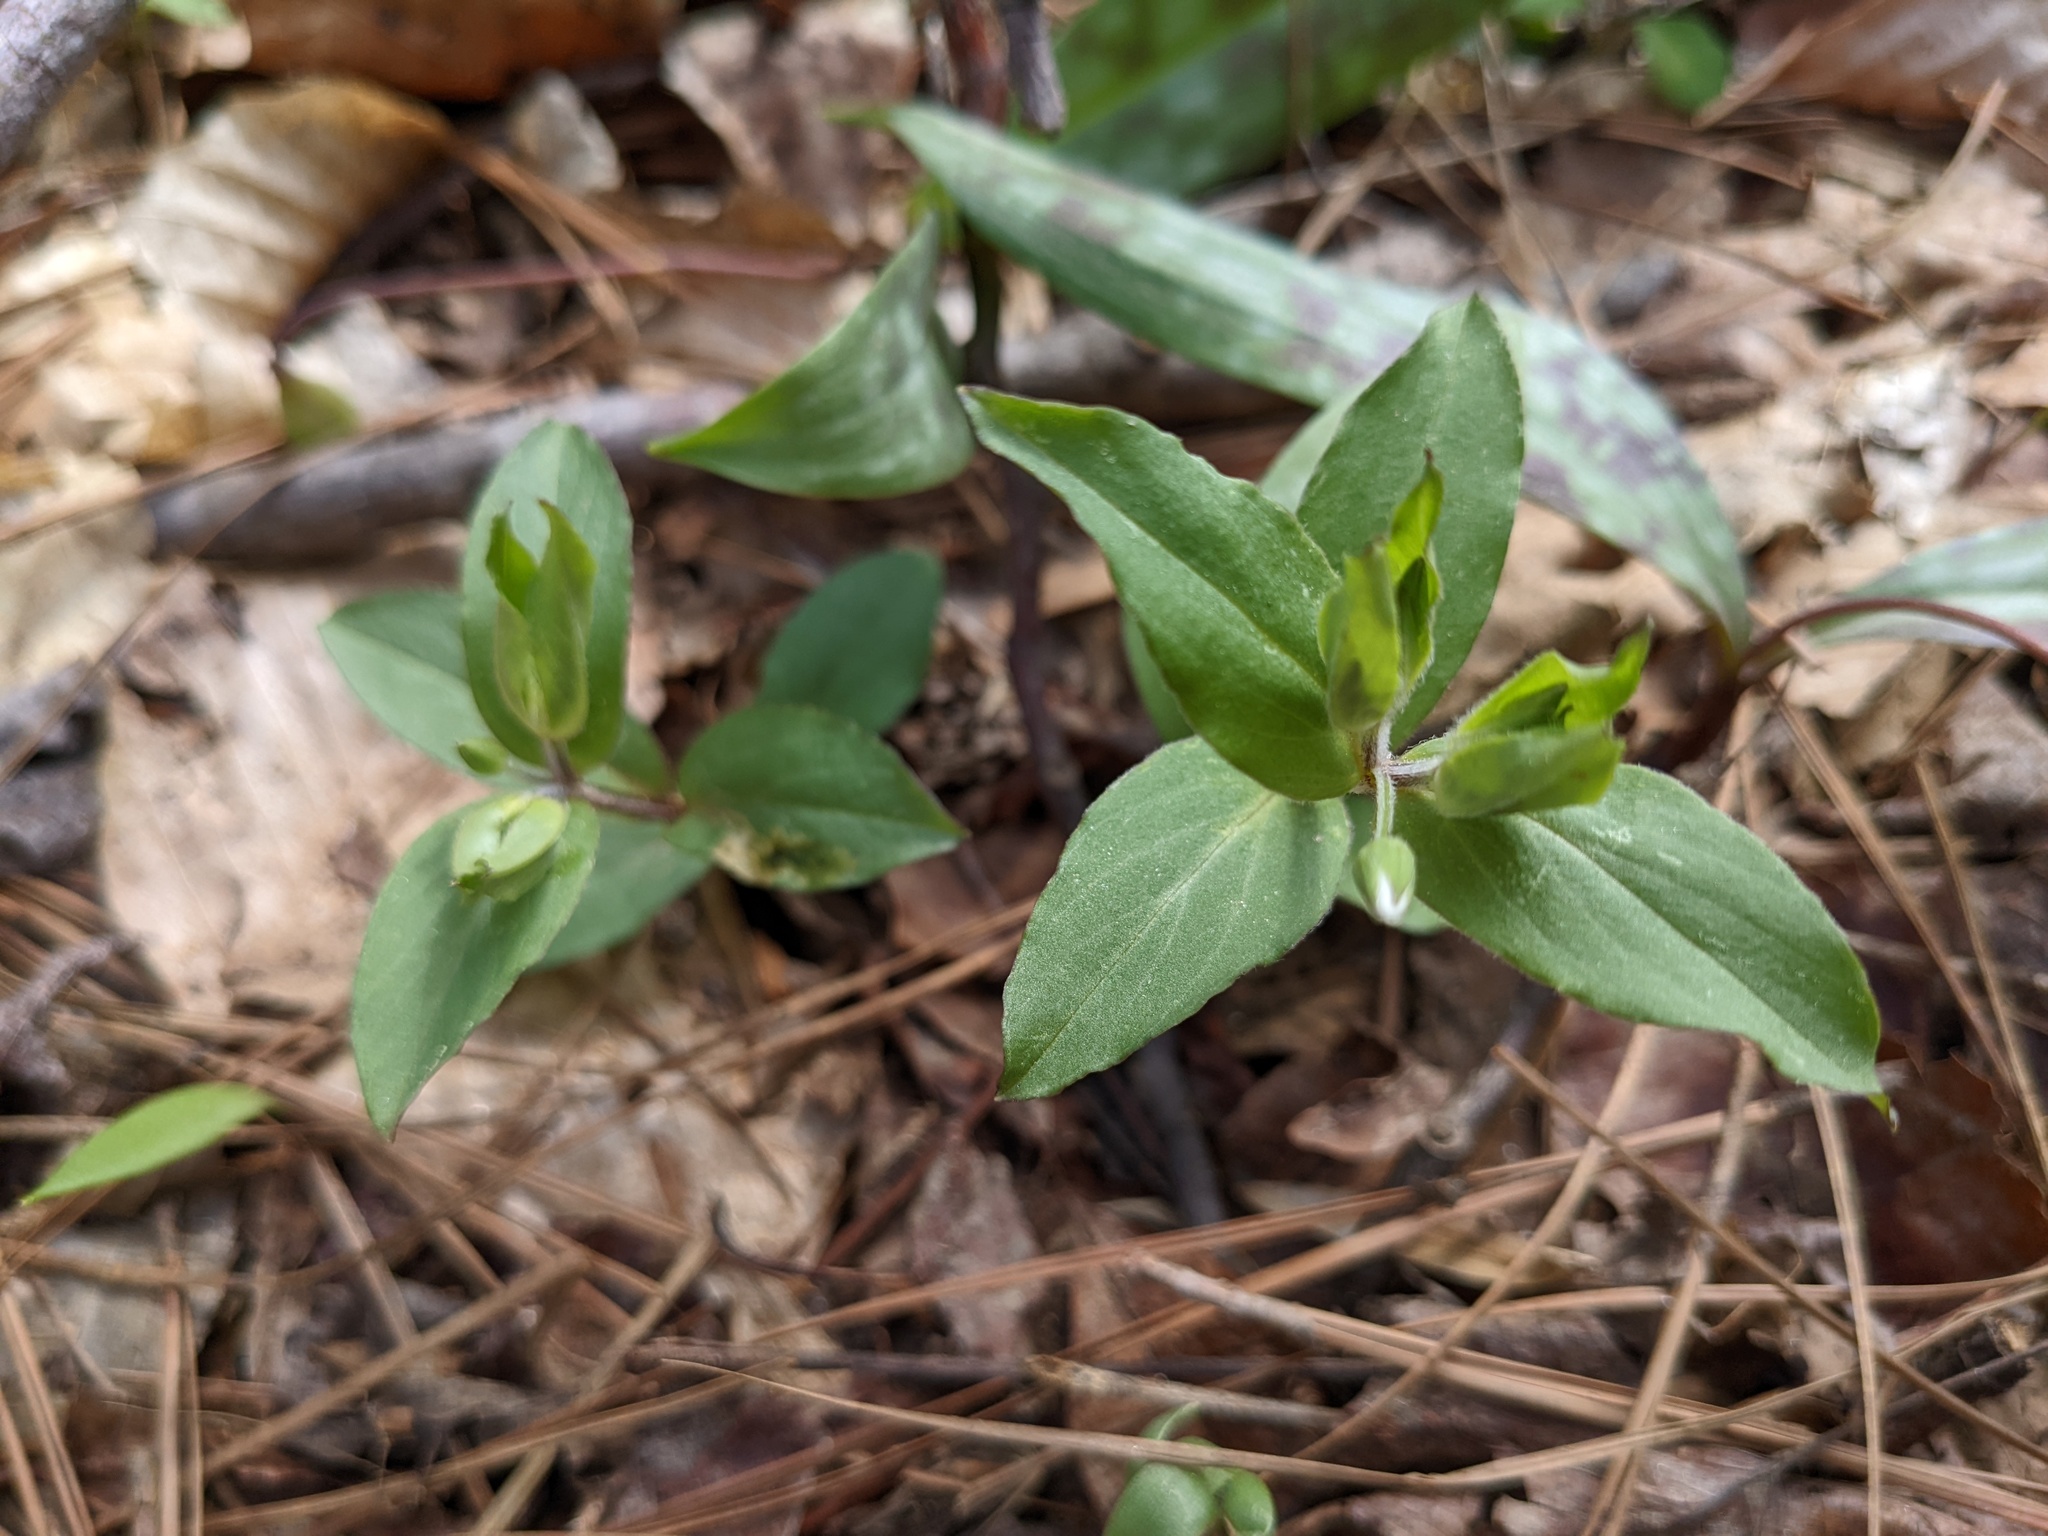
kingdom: Plantae
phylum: Tracheophyta
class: Magnoliopsida
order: Caryophyllales
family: Caryophyllaceae
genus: Stellaria
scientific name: Stellaria pubera
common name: Star chickweed
